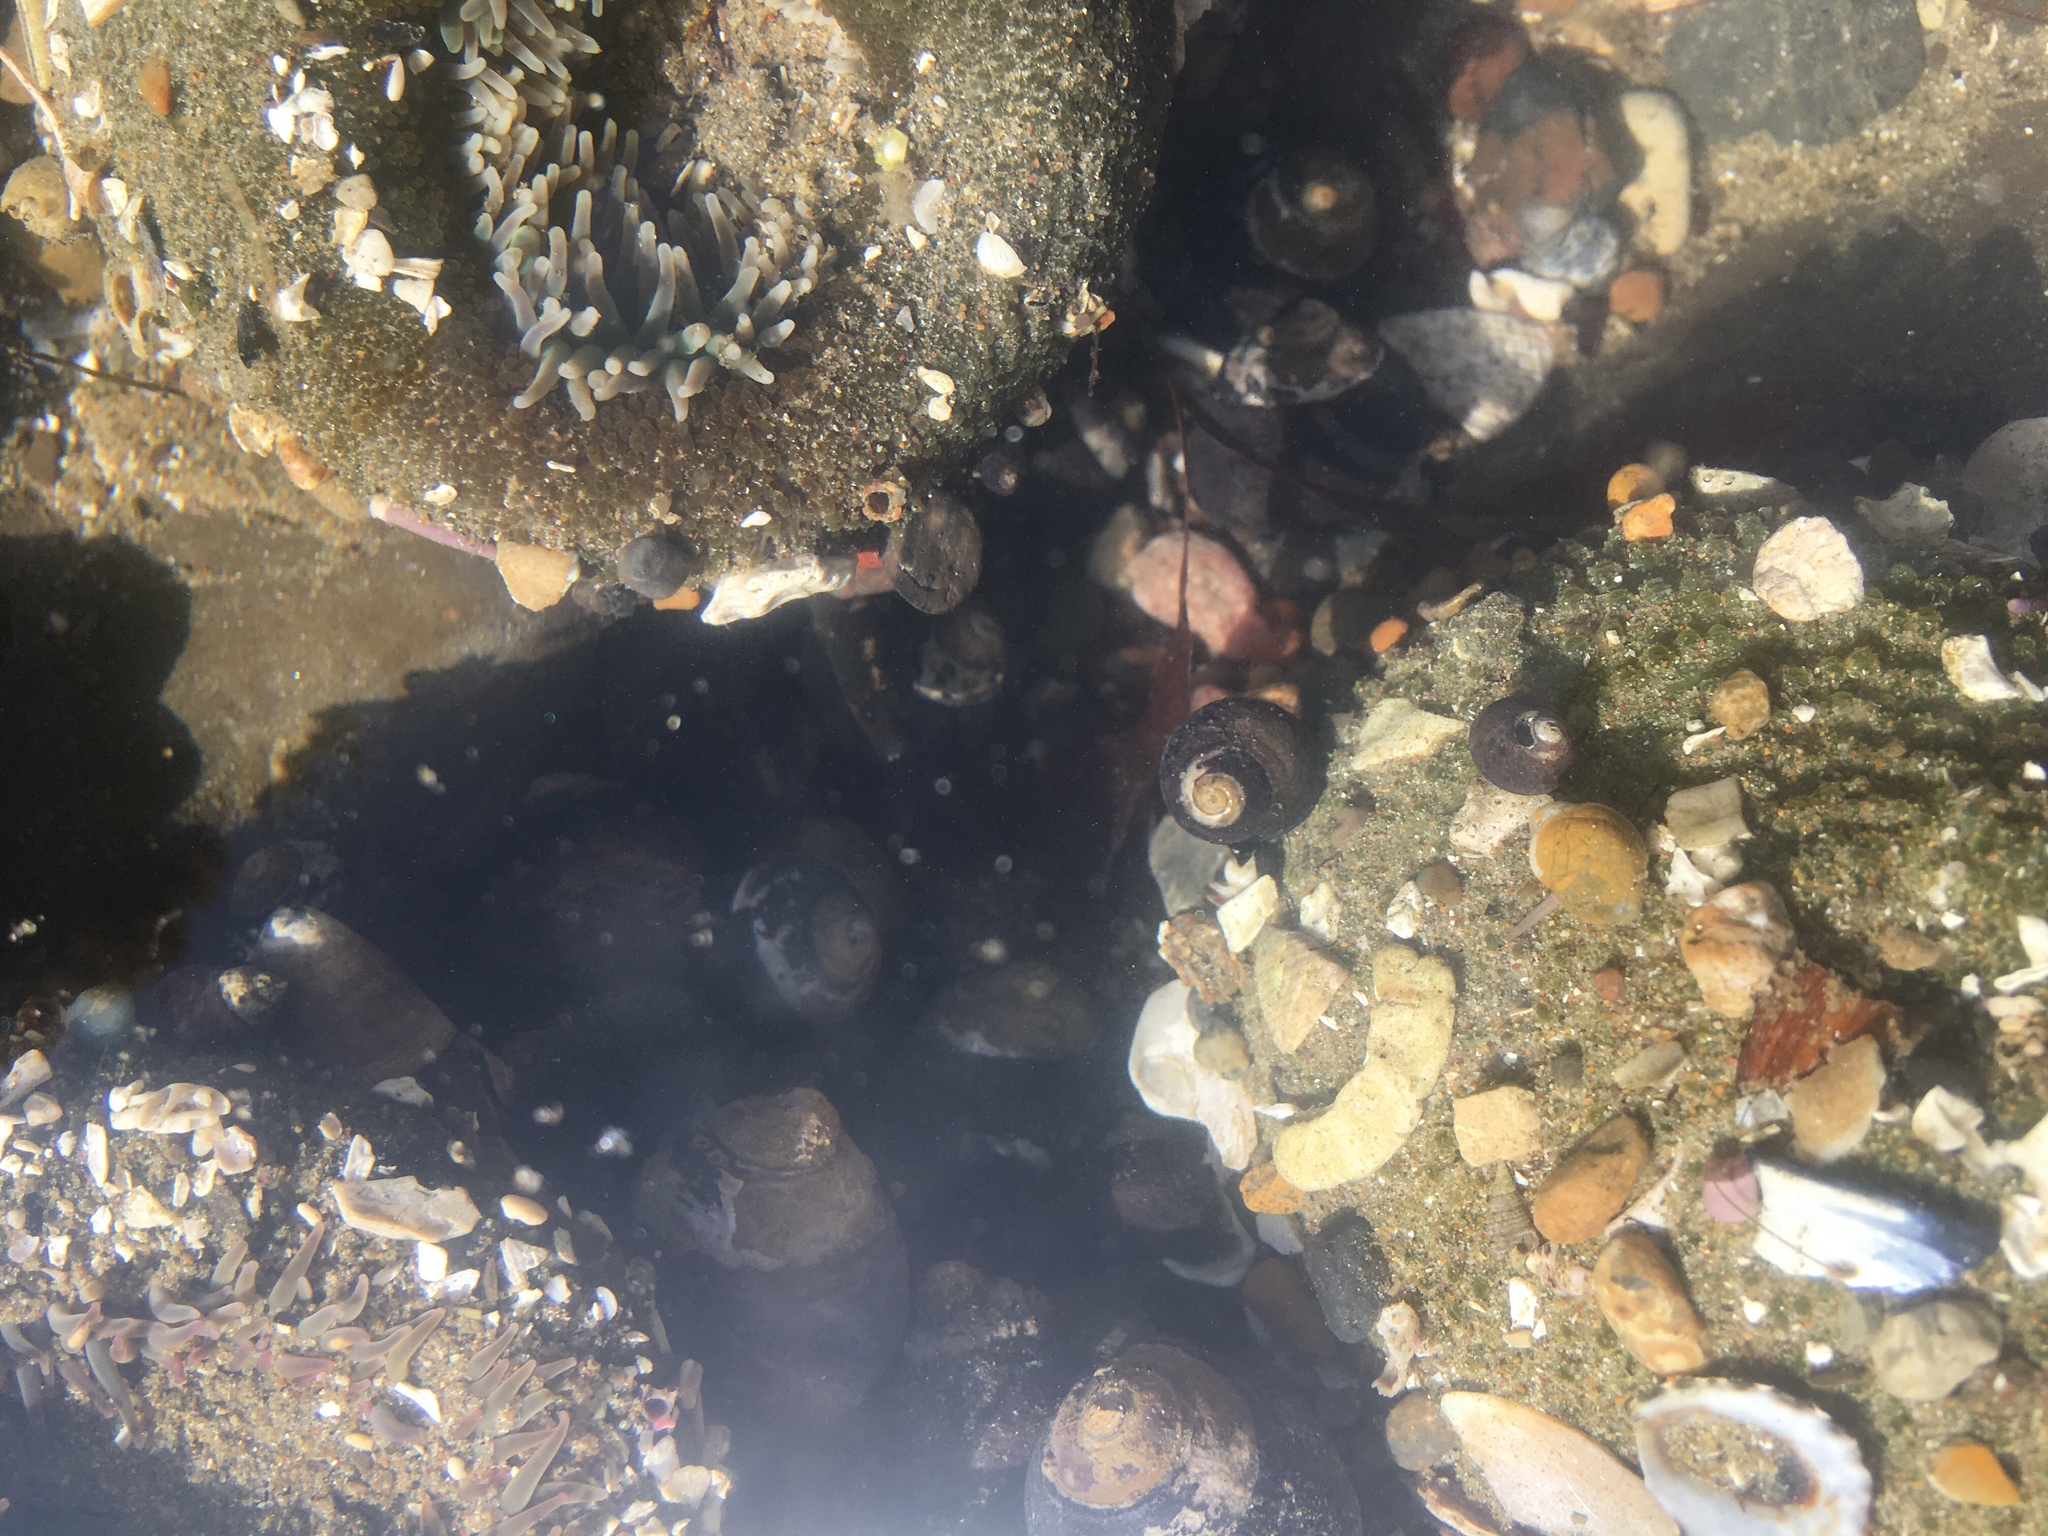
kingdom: Animalia
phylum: Chordata
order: Perciformes
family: Stichaeidae
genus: Xiphister
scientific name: Xiphister atropurpureus
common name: Black prickleback
